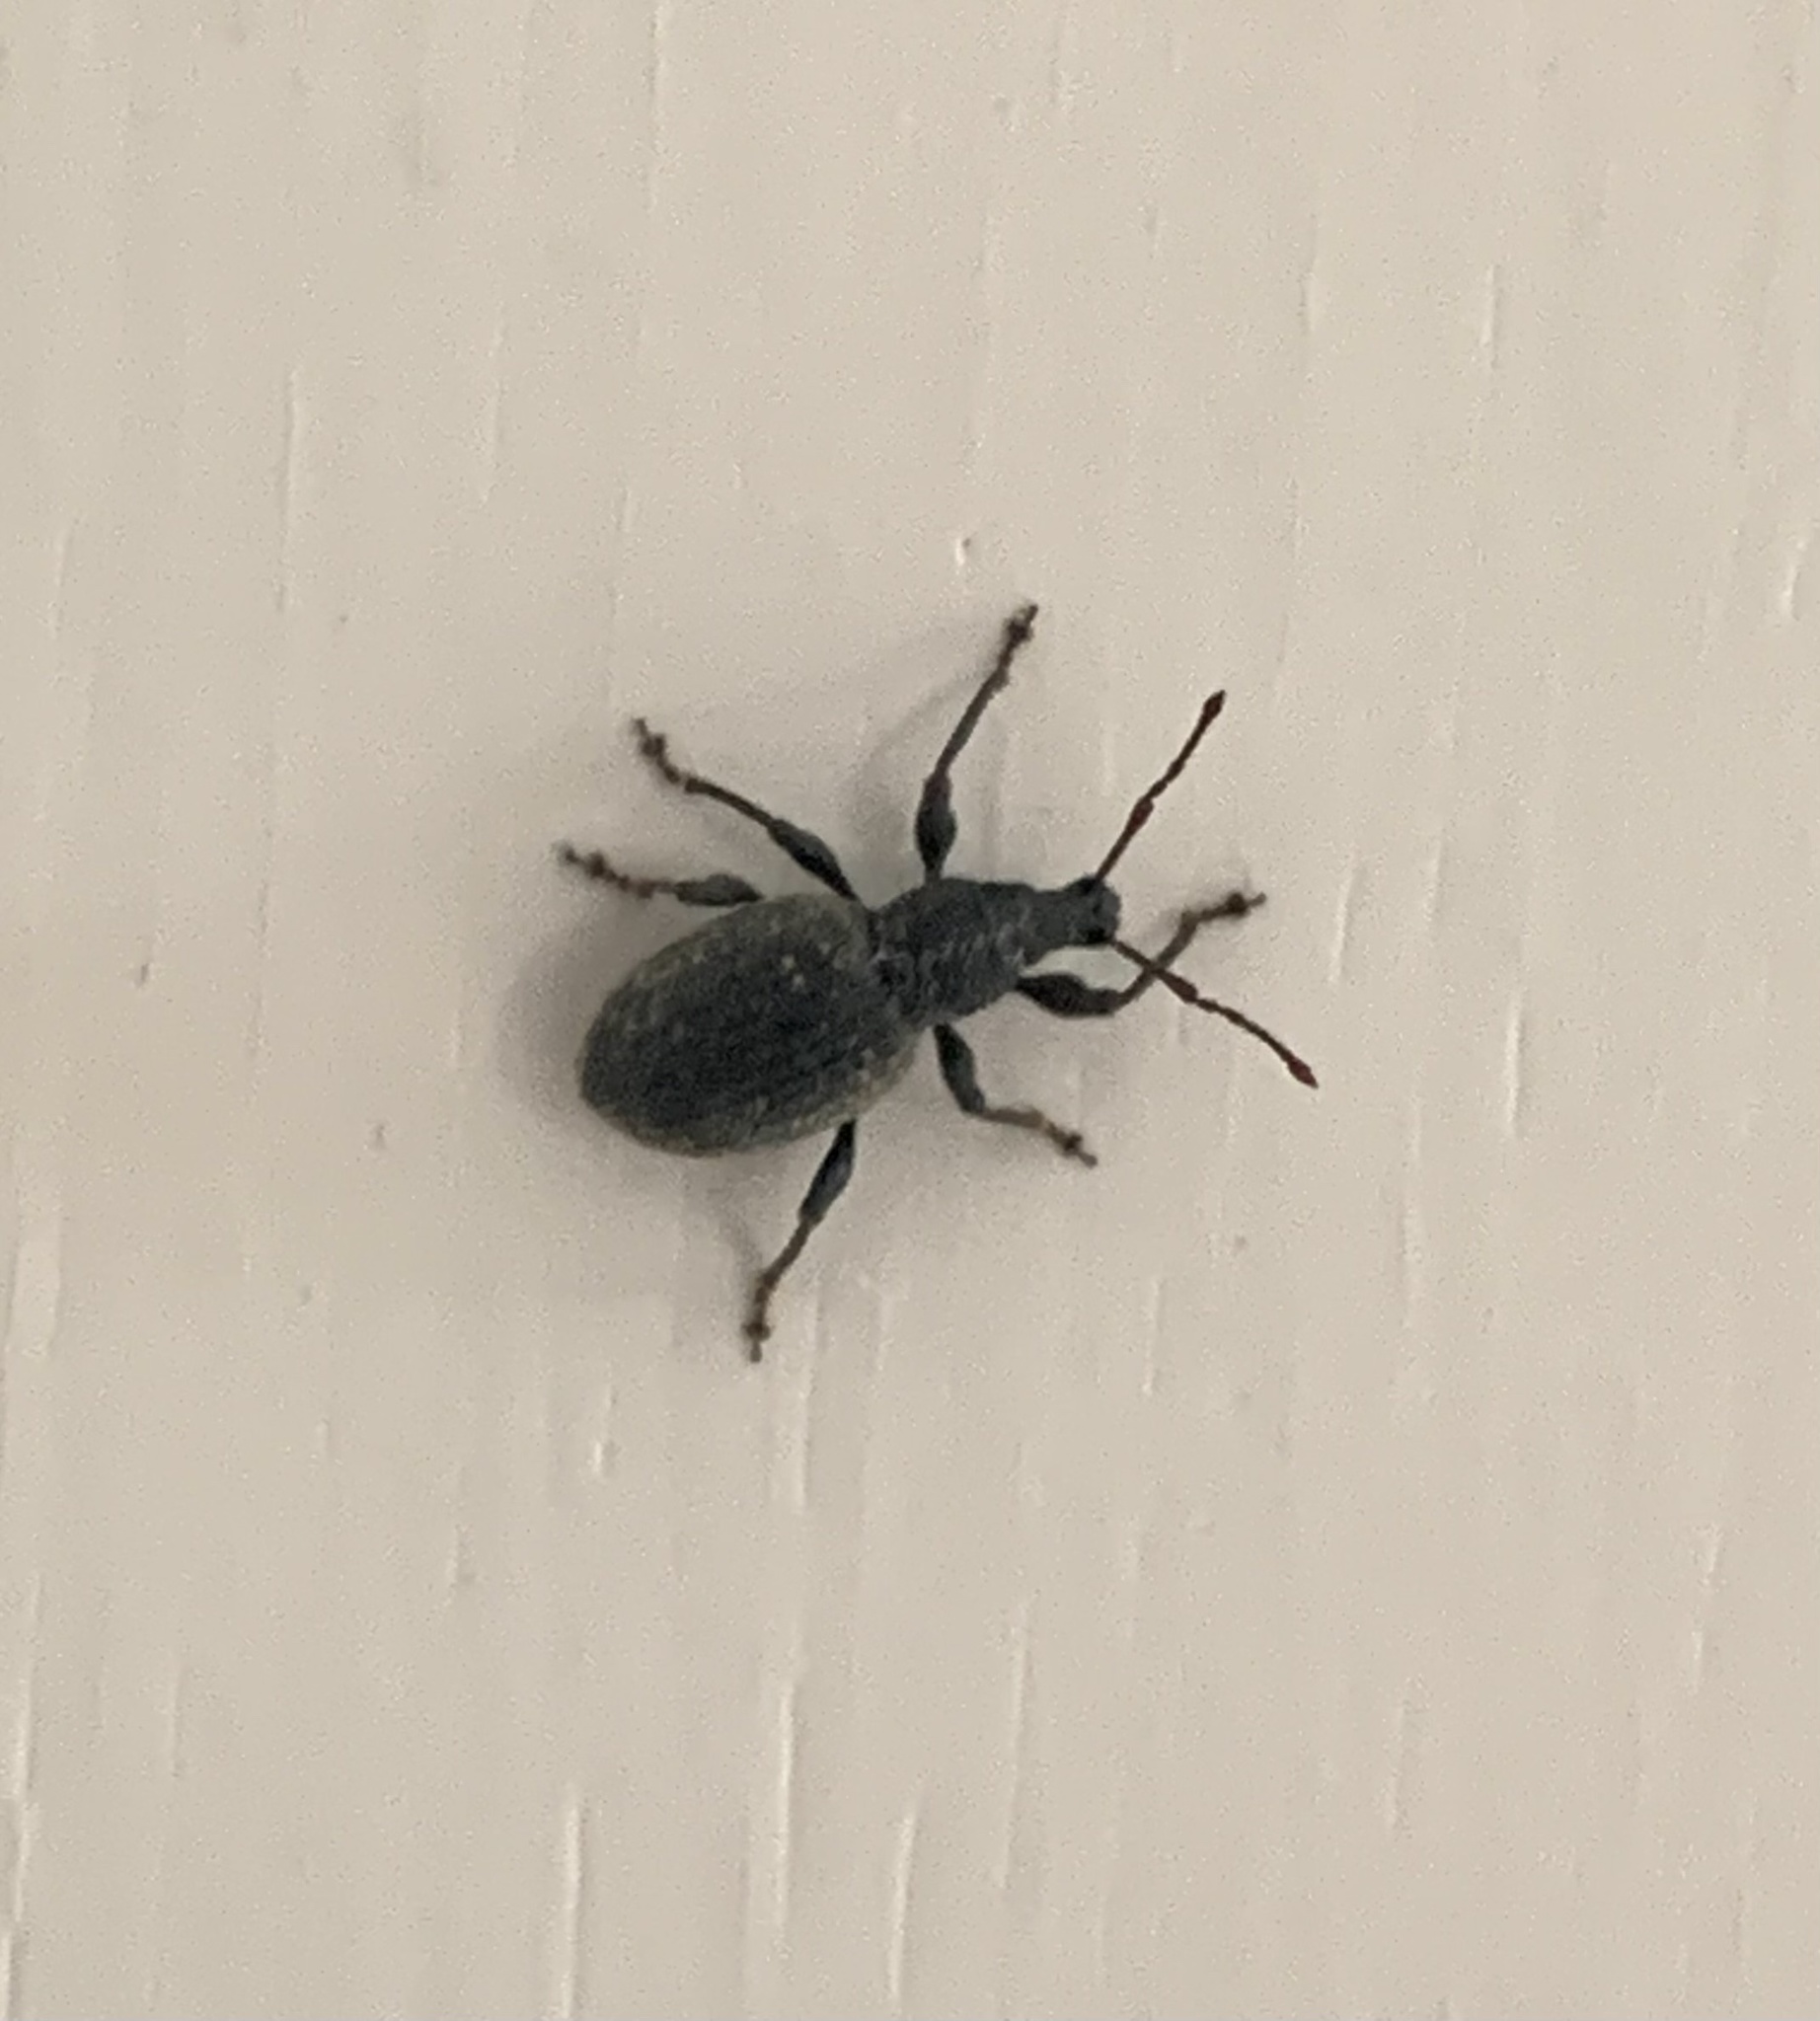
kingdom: Animalia
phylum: Arthropoda
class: Insecta
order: Coleoptera
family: Curculionidae
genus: Otiorhynchus
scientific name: Otiorhynchus sulcatus
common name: Black vine weevil
